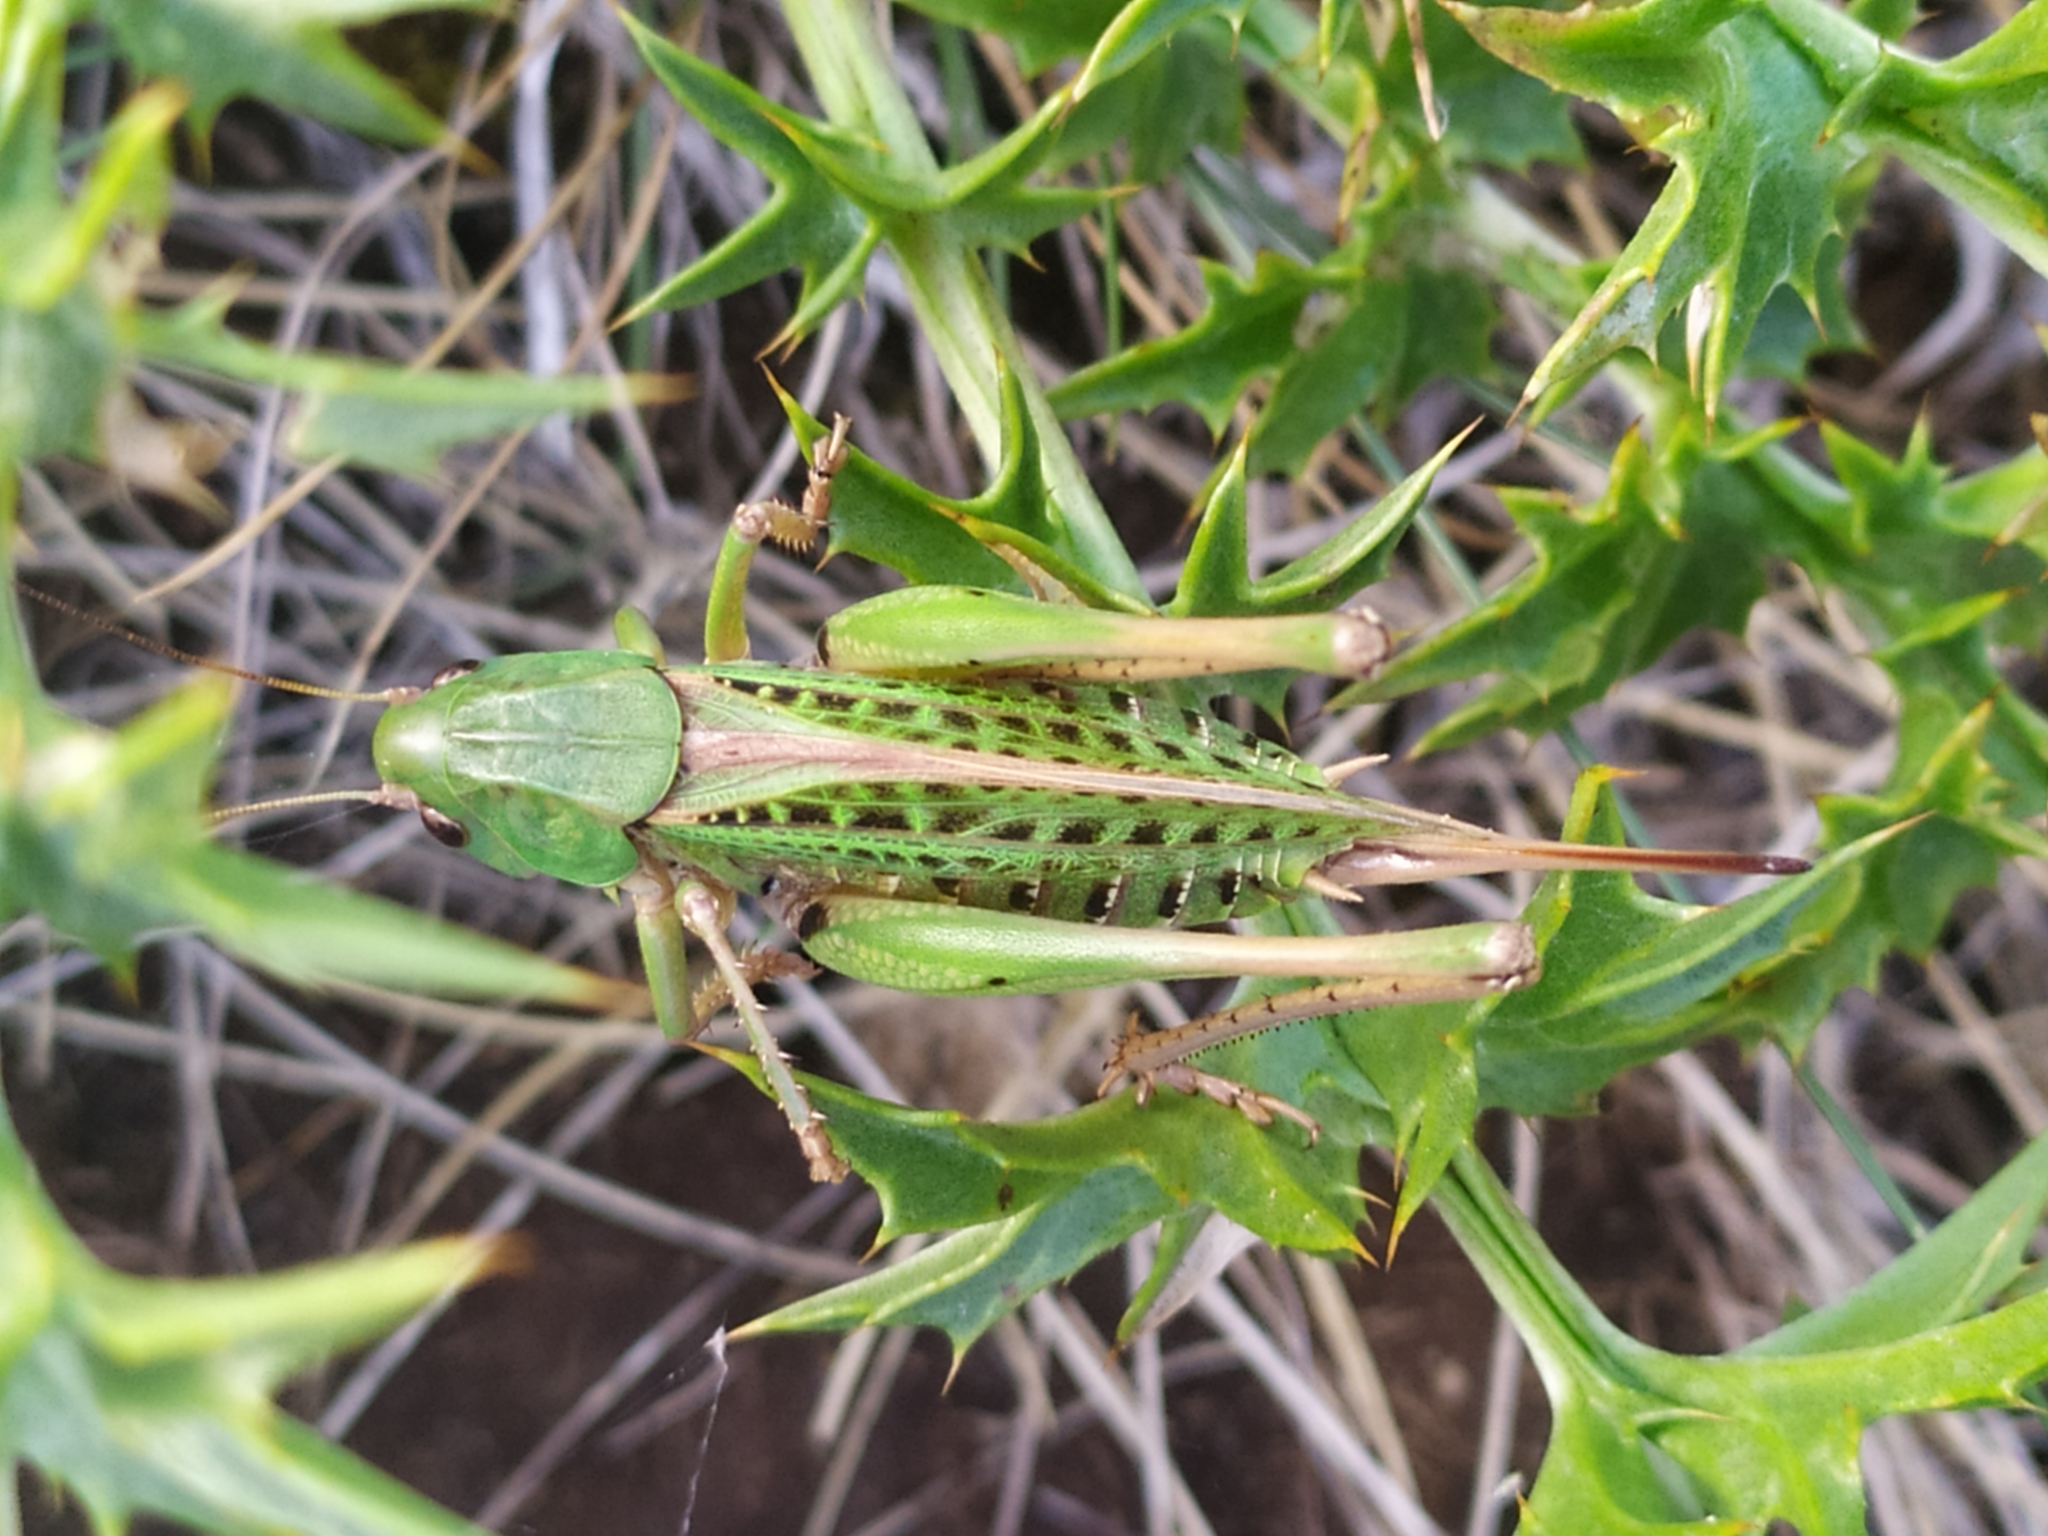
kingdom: Animalia
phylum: Arthropoda
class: Insecta
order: Orthoptera
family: Tettigoniidae
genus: Decticus
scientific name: Decticus verrucivorus
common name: Wart-biter
